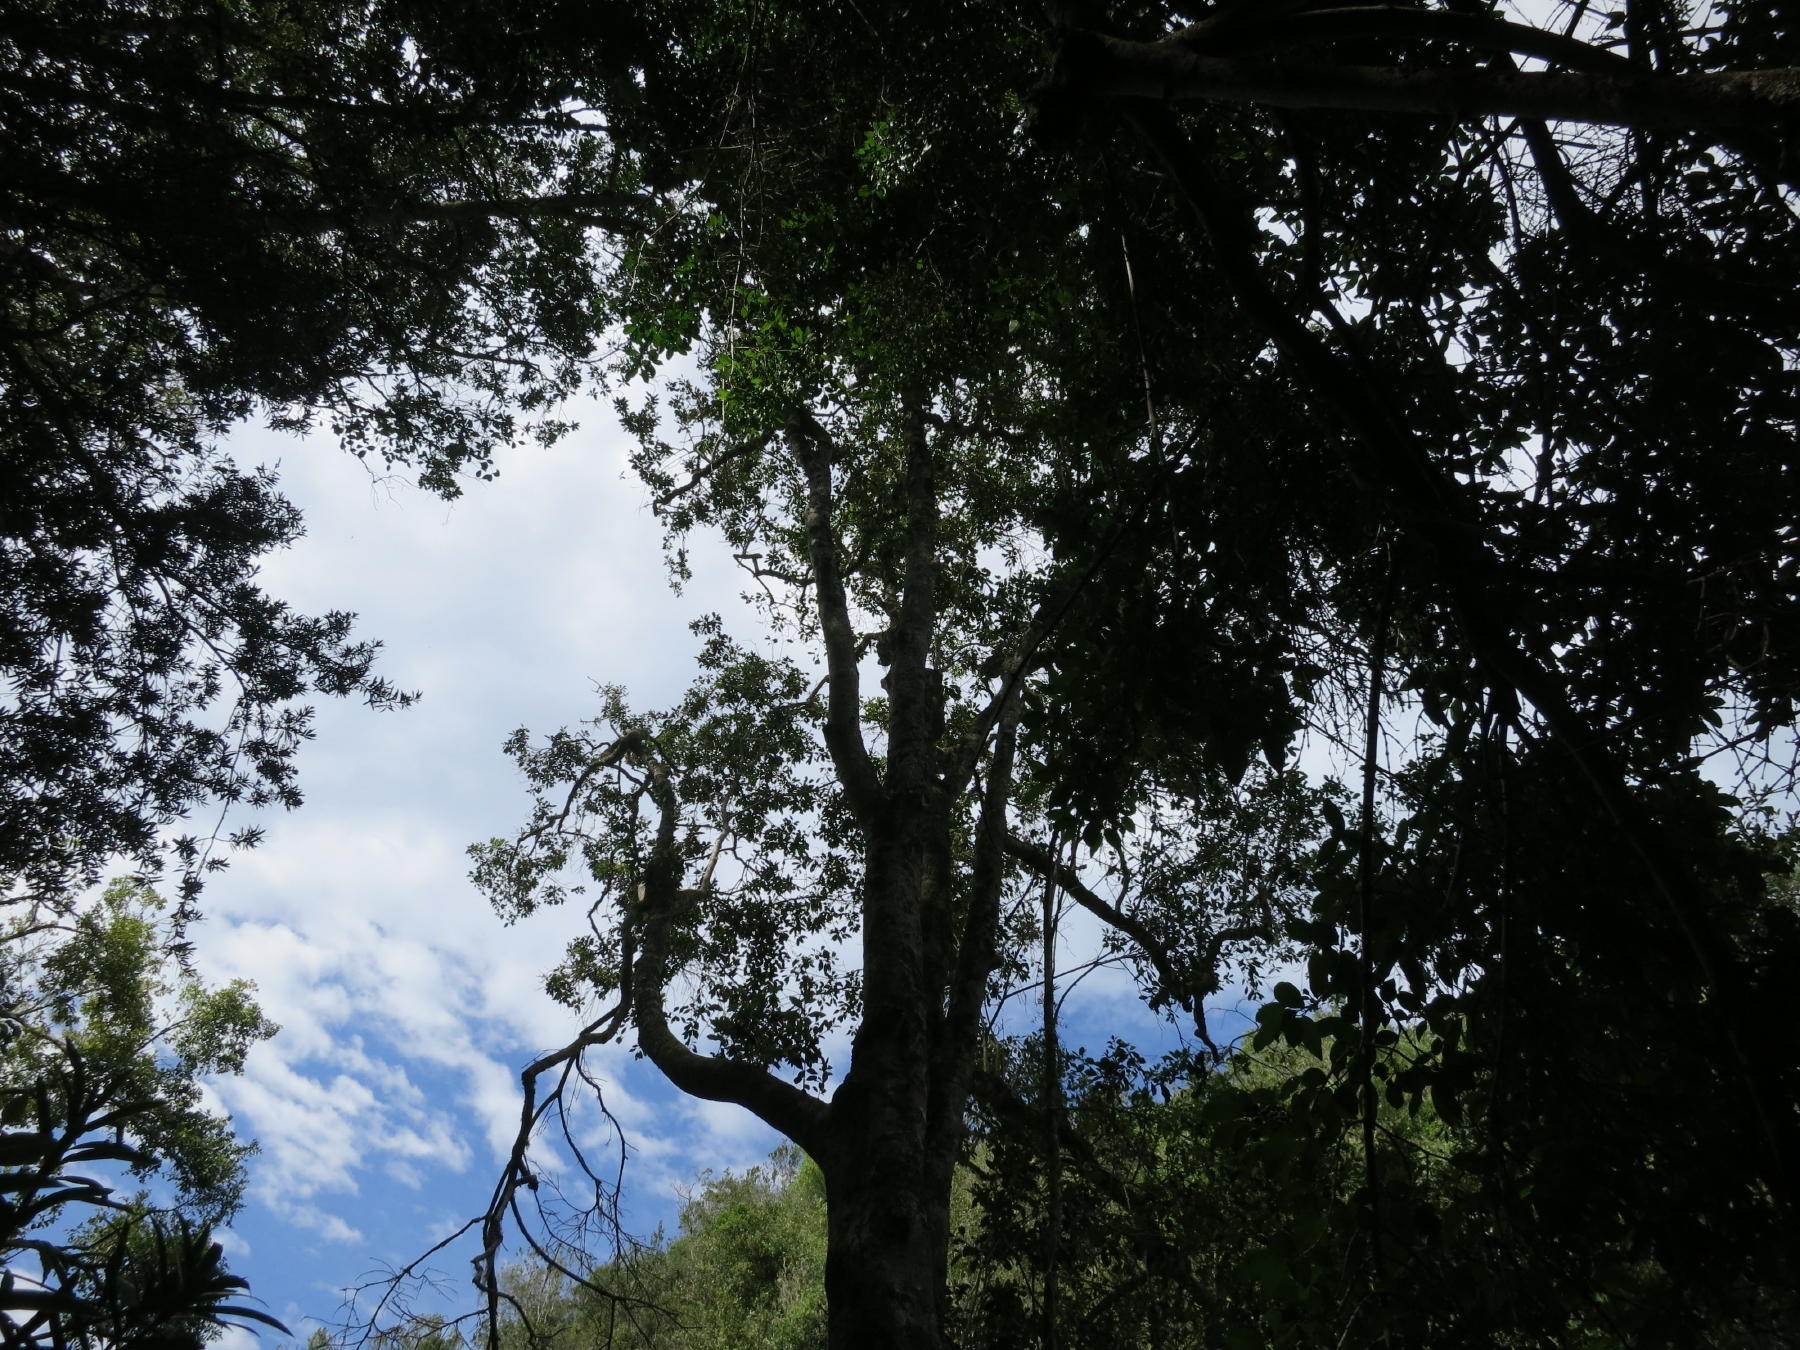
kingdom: Plantae
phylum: Tracheophyta
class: Magnoliopsida
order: Aquifoliales
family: Aquifoliaceae
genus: Ilex
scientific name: Ilex mitis
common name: African holly
